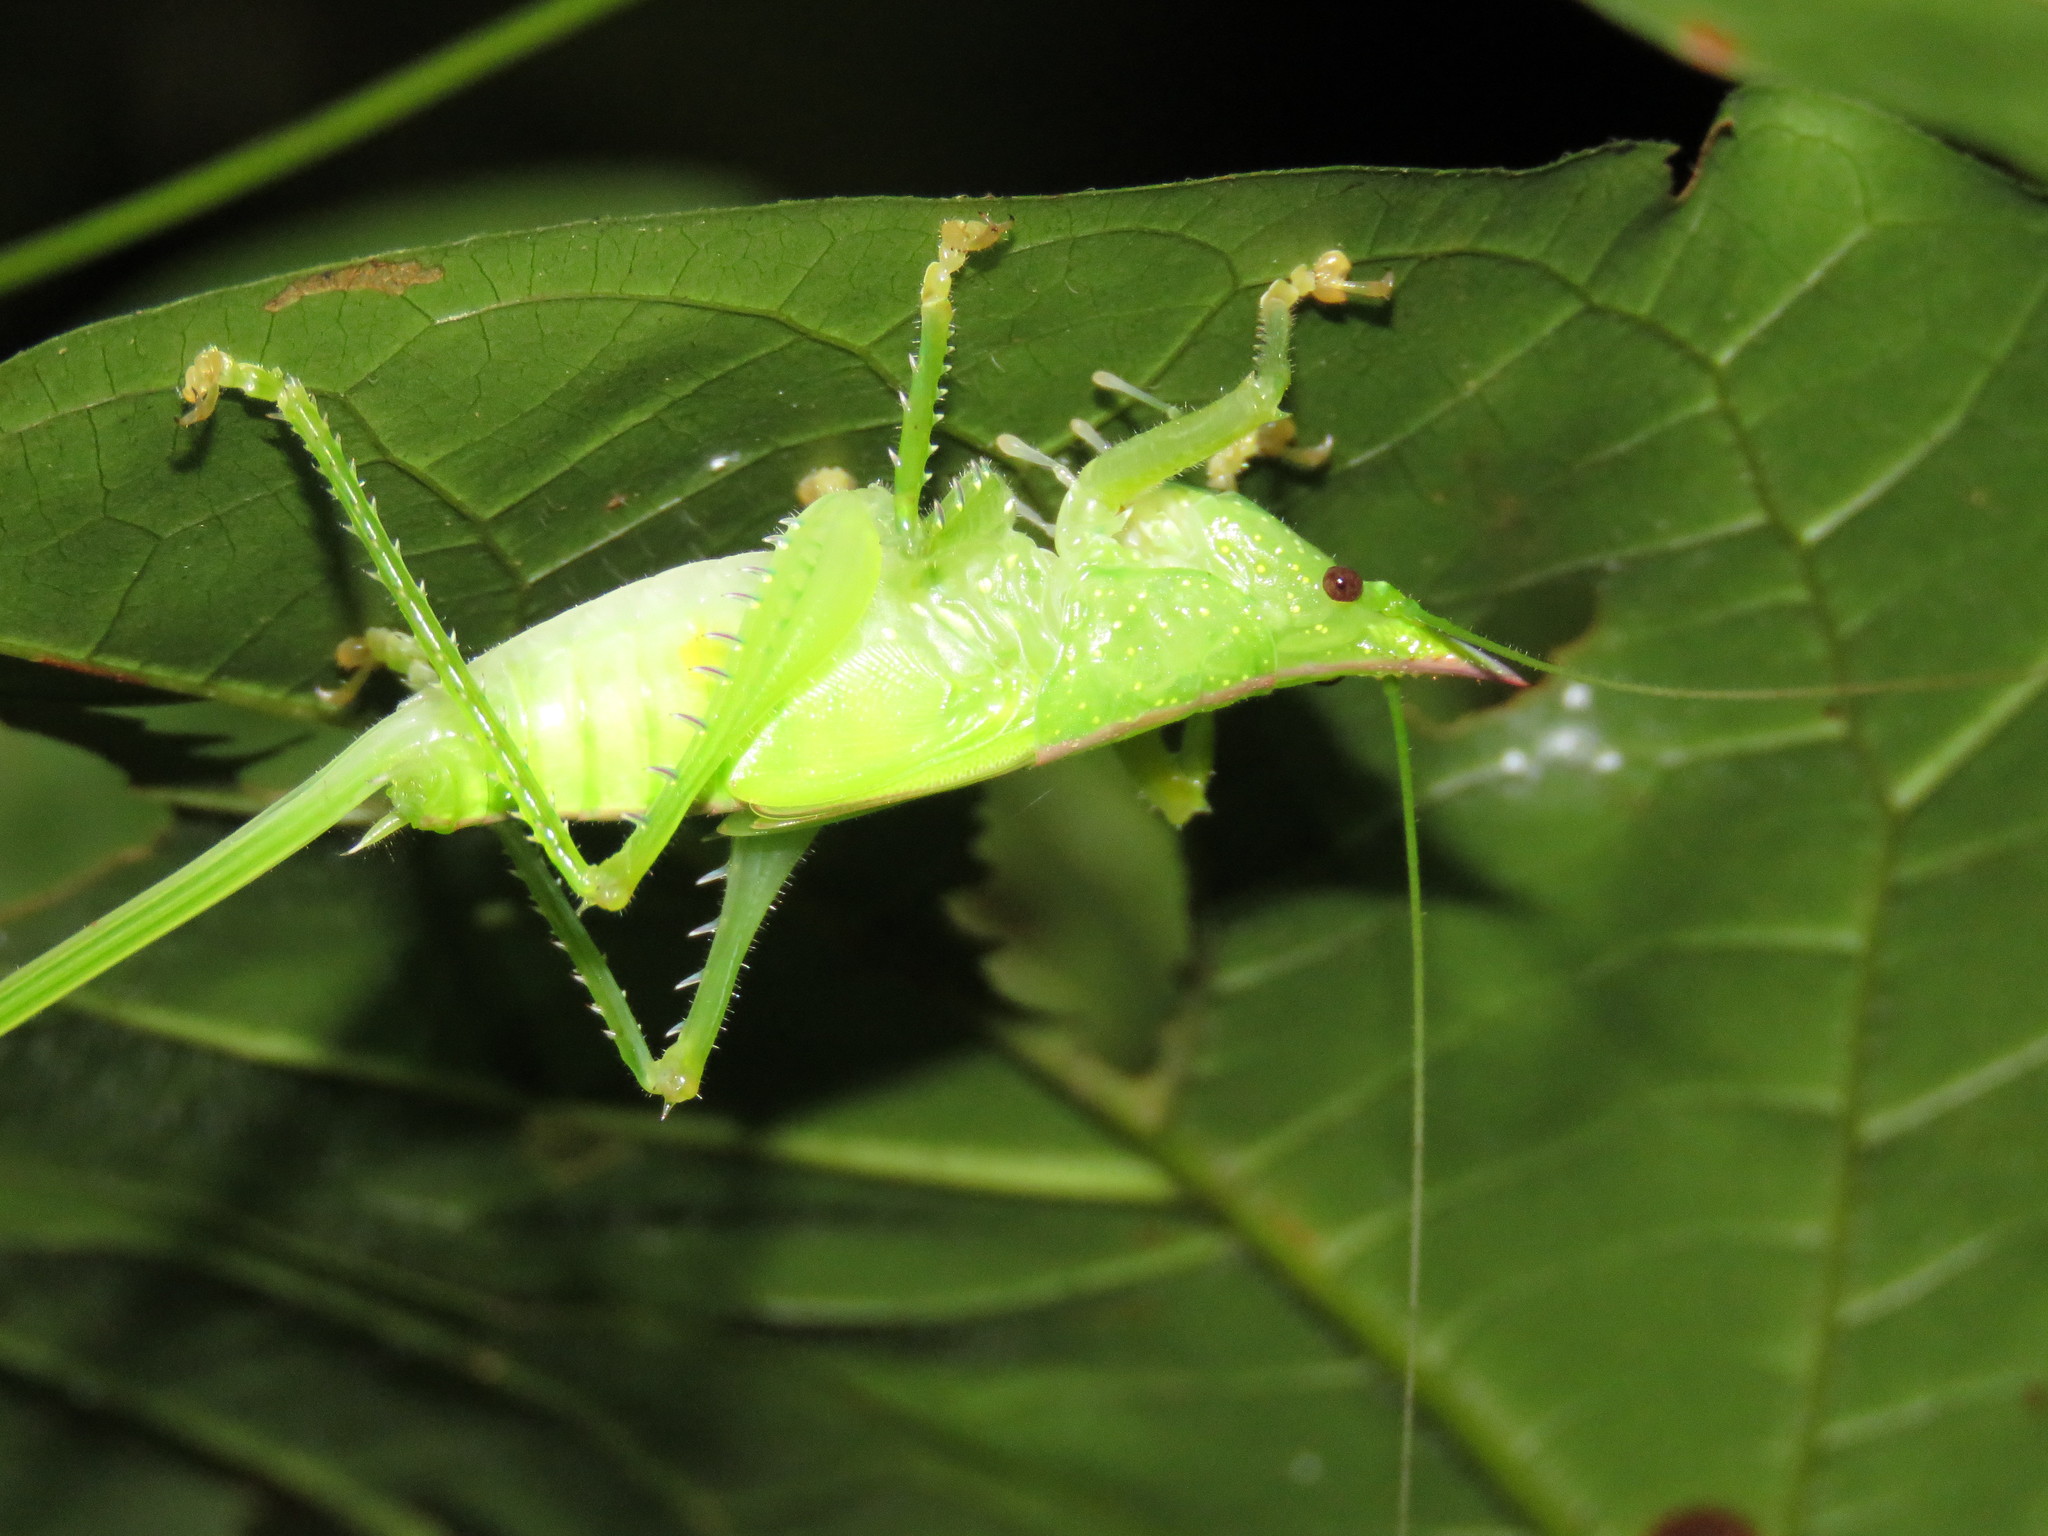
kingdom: Animalia
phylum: Arthropoda
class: Insecta
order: Orthoptera
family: Tettigoniidae
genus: Copiphora
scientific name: Copiphora gracilis
